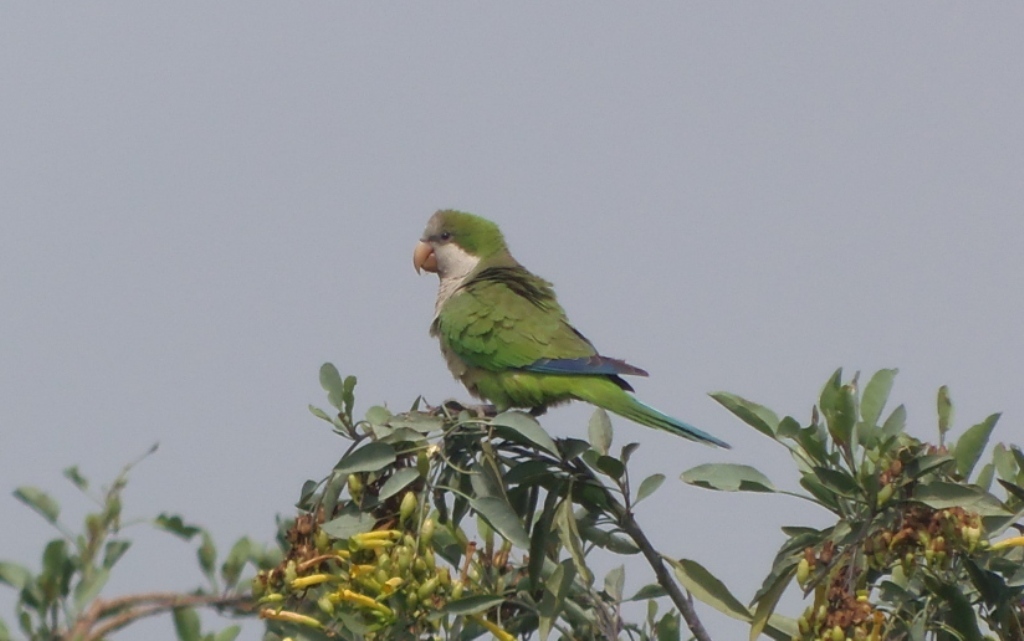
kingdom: Animalia
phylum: Chordata
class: Aves
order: Psittaciformes
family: Psittacidae
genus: Myiopsitta
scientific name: Myiopsitta monachus
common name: Monk parakeet
